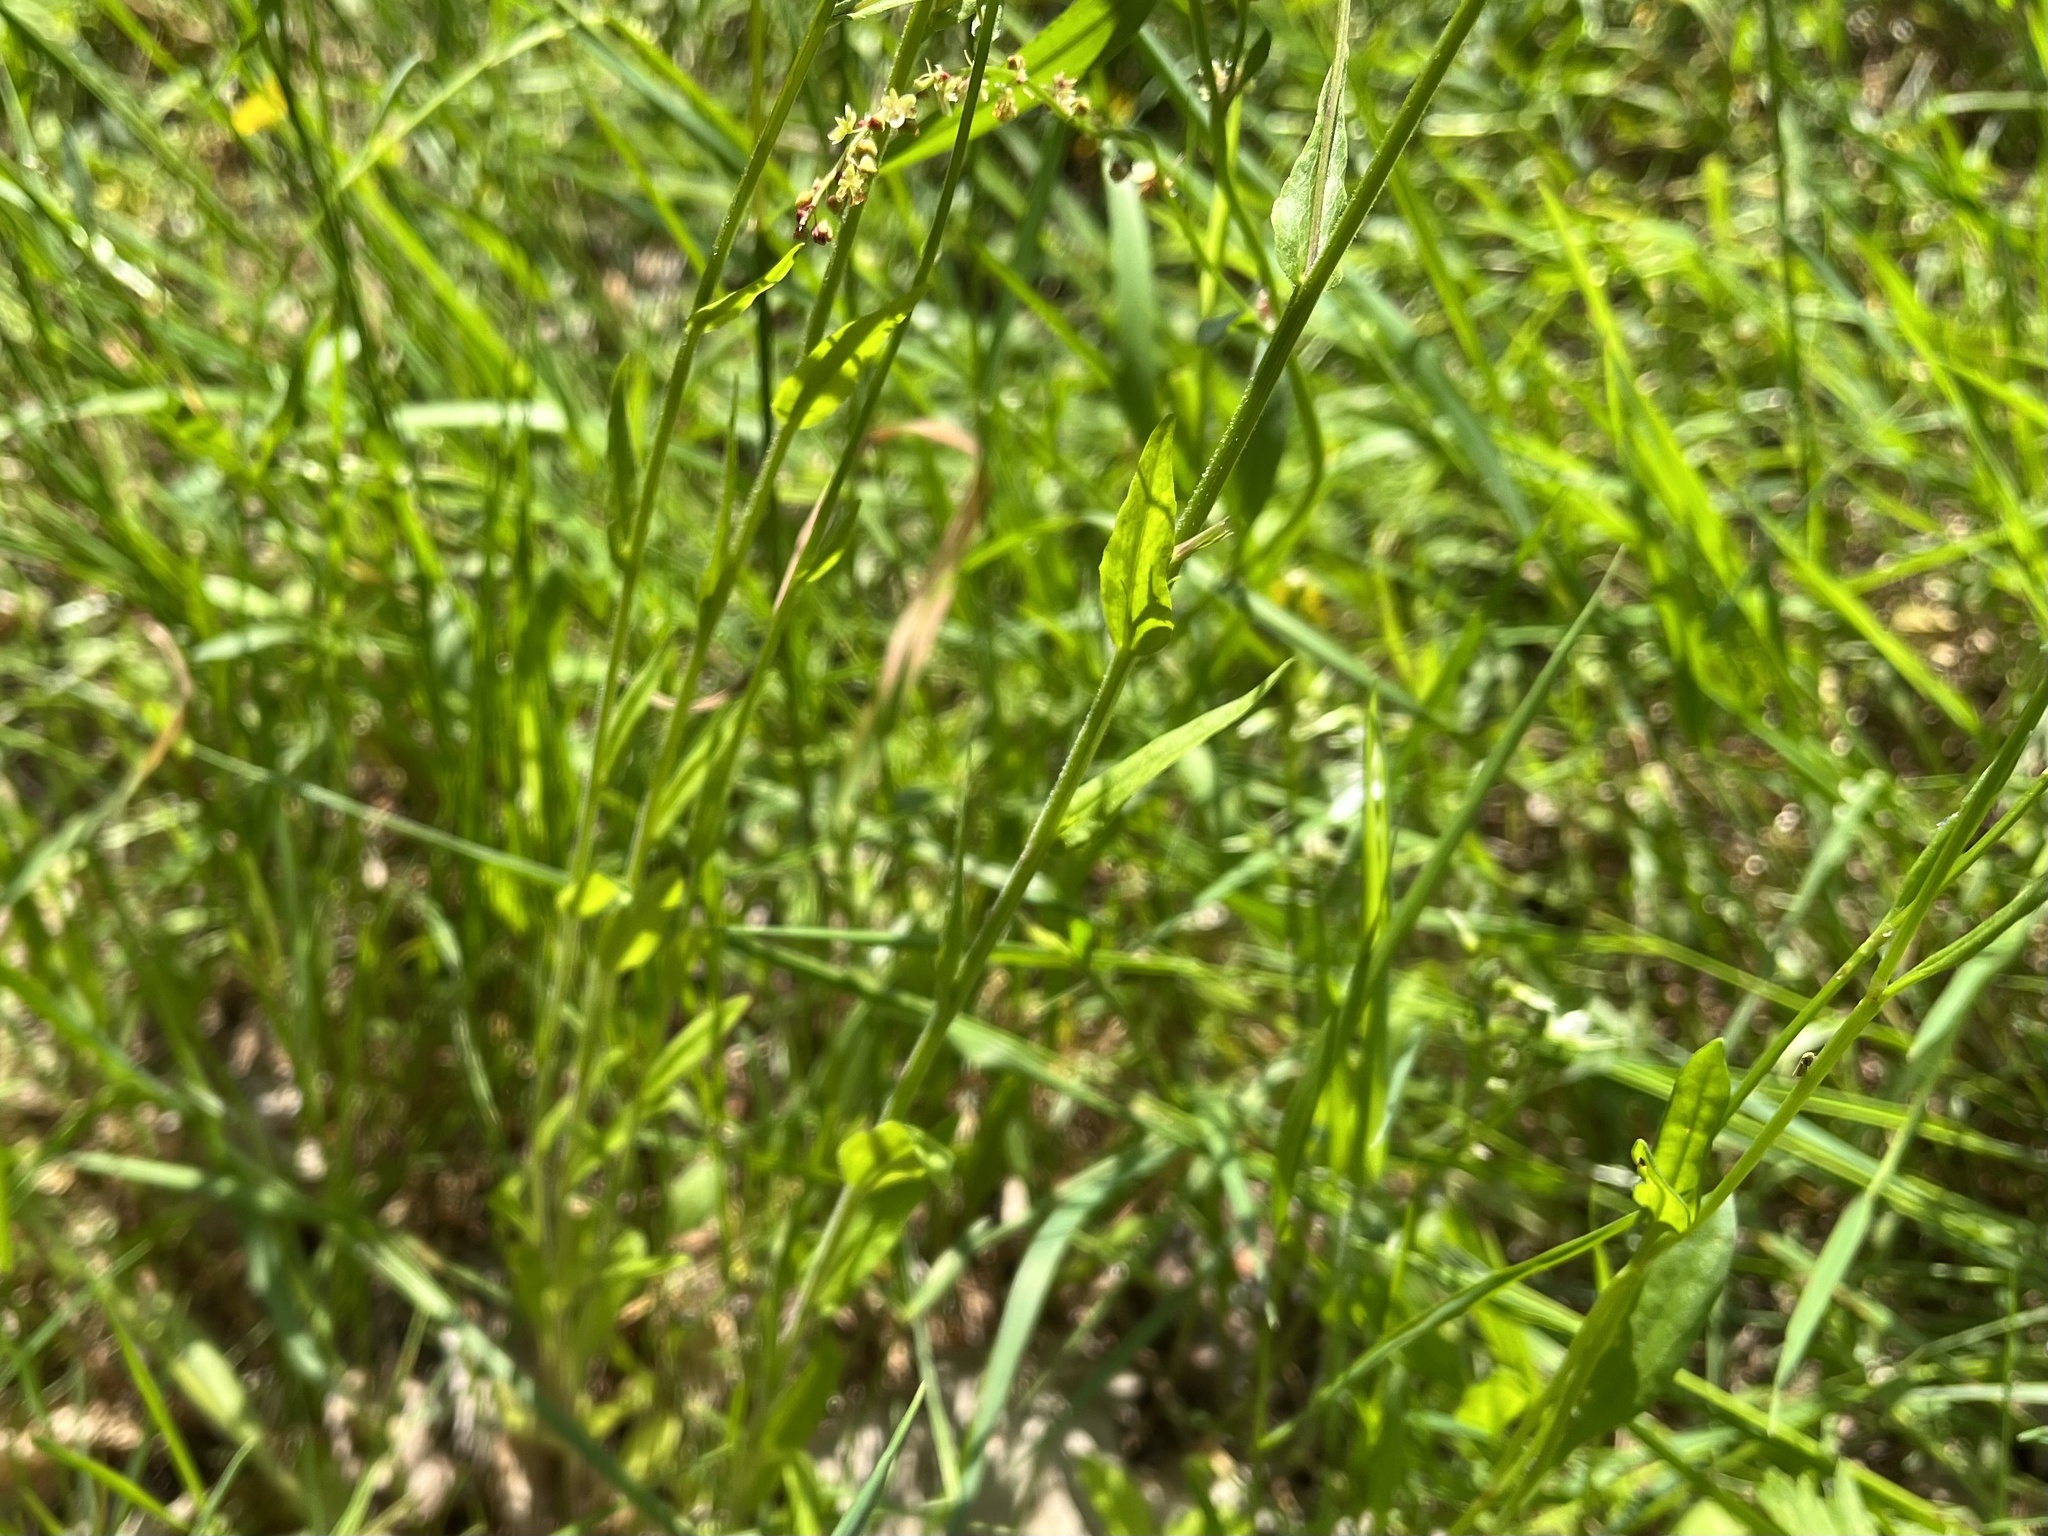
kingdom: Plantae
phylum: Tracheophyta
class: Magnoliopsida
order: Asterales
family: Campanulaceae
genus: Campanula
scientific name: Campanula patula
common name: Spreading bellflower
